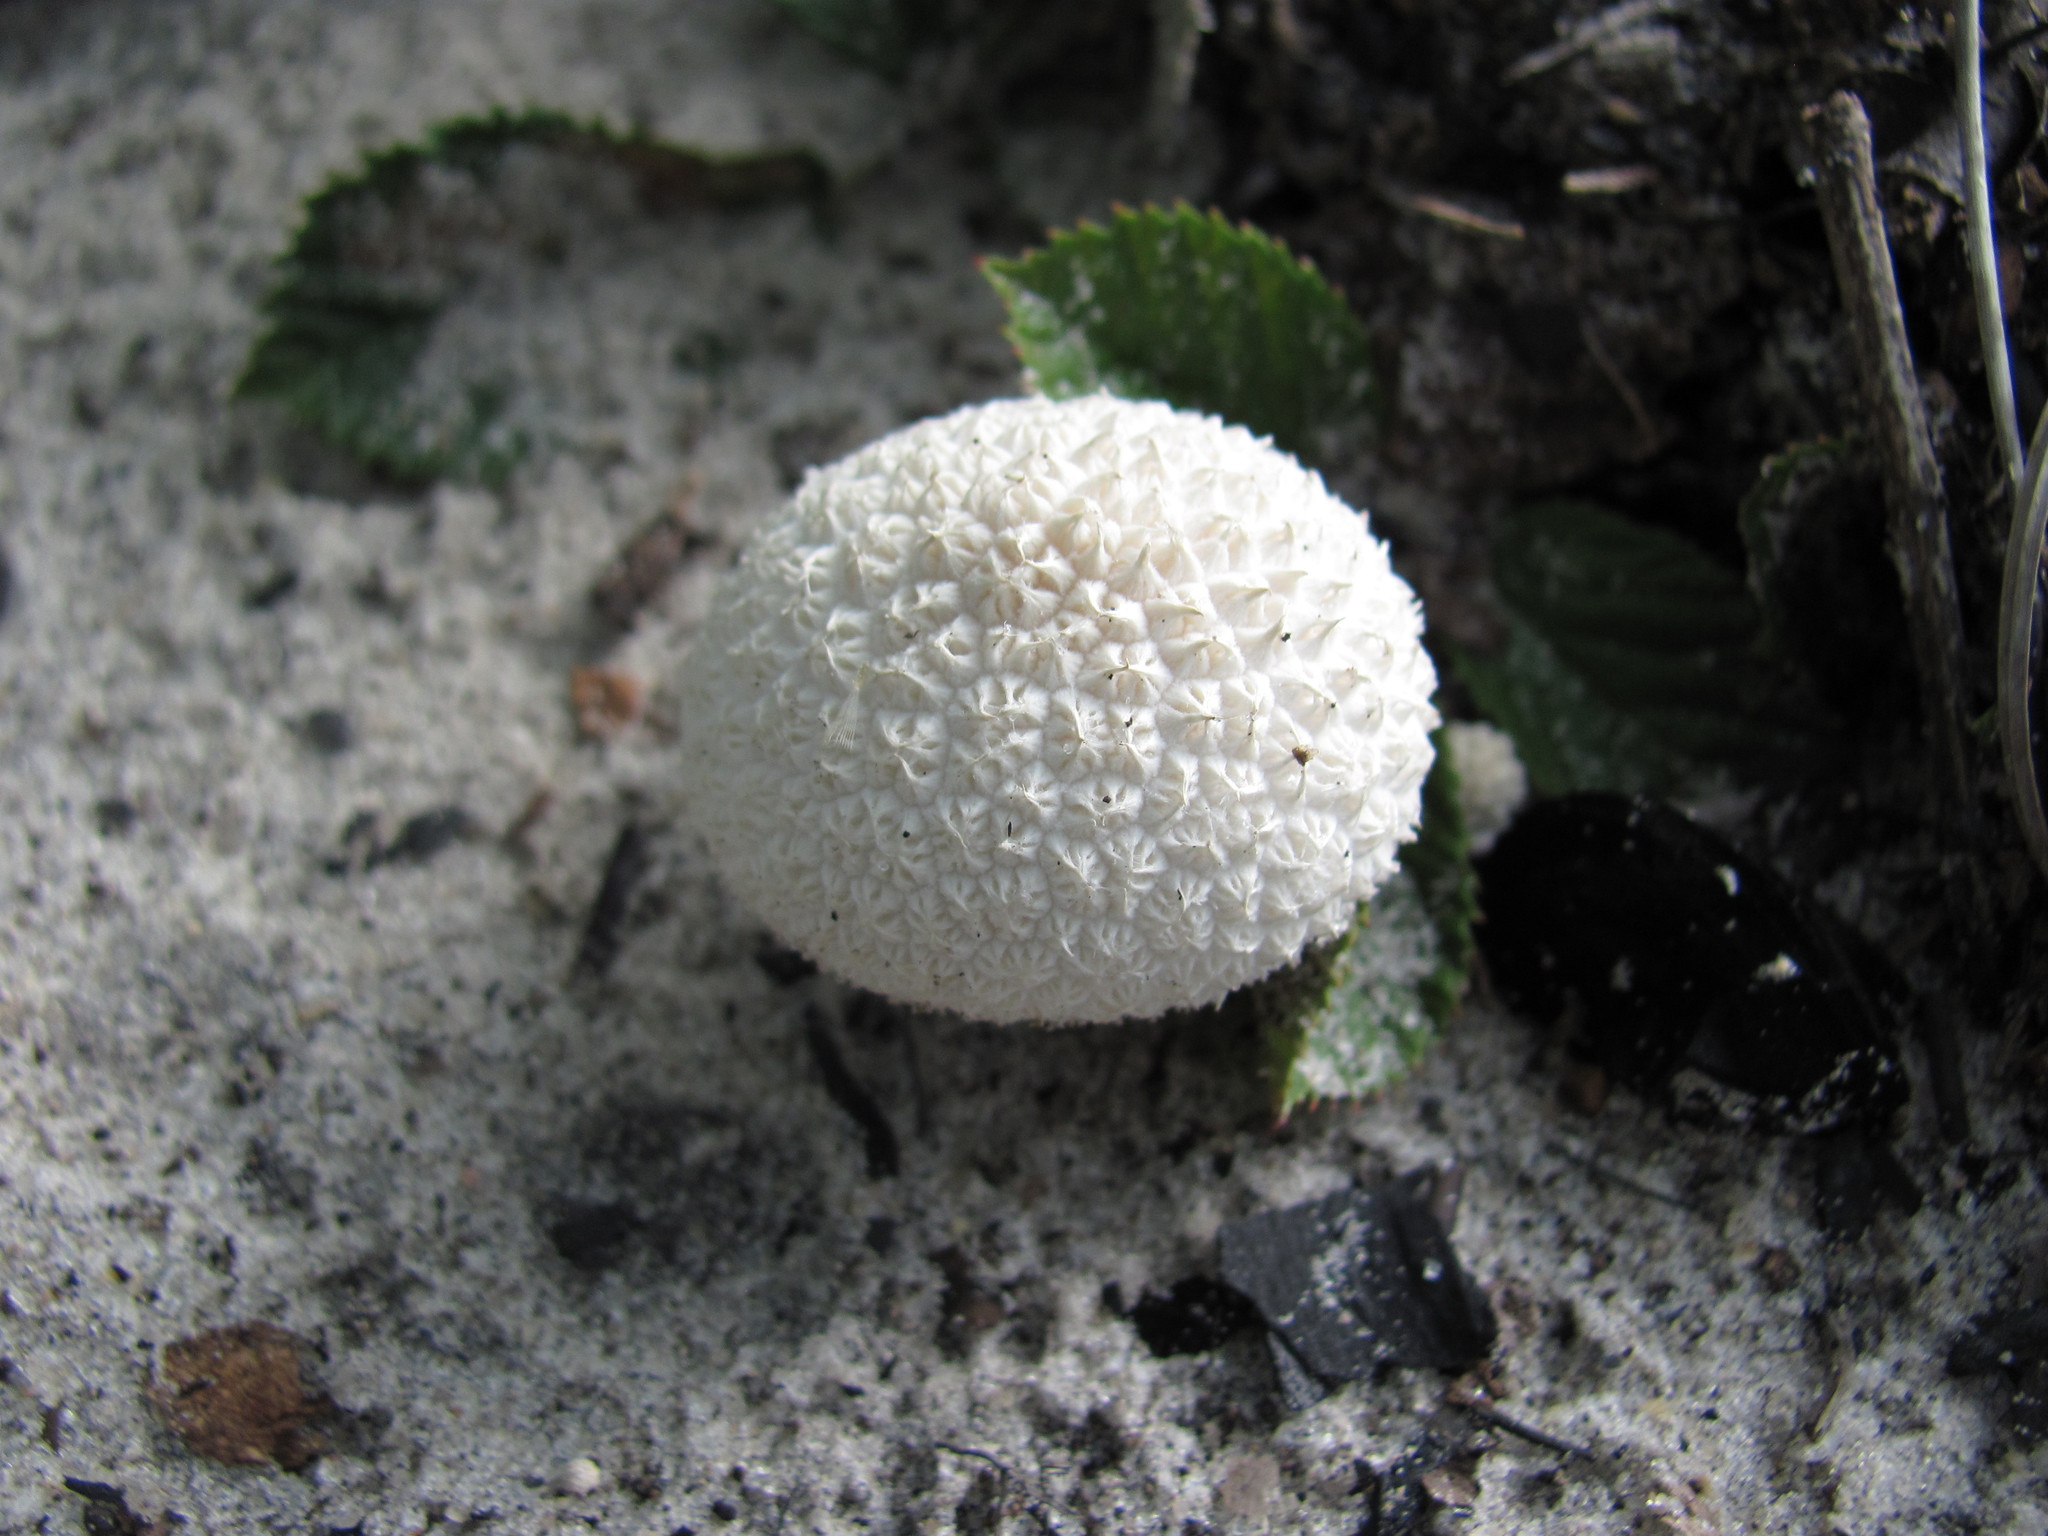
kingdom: Fungi
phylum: Basidiomycota
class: Agaricomycetes
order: Agaricales
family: Agaricaceae
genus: Lycoperdon
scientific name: Lycoperdon marginatum
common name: Peeling puffball
